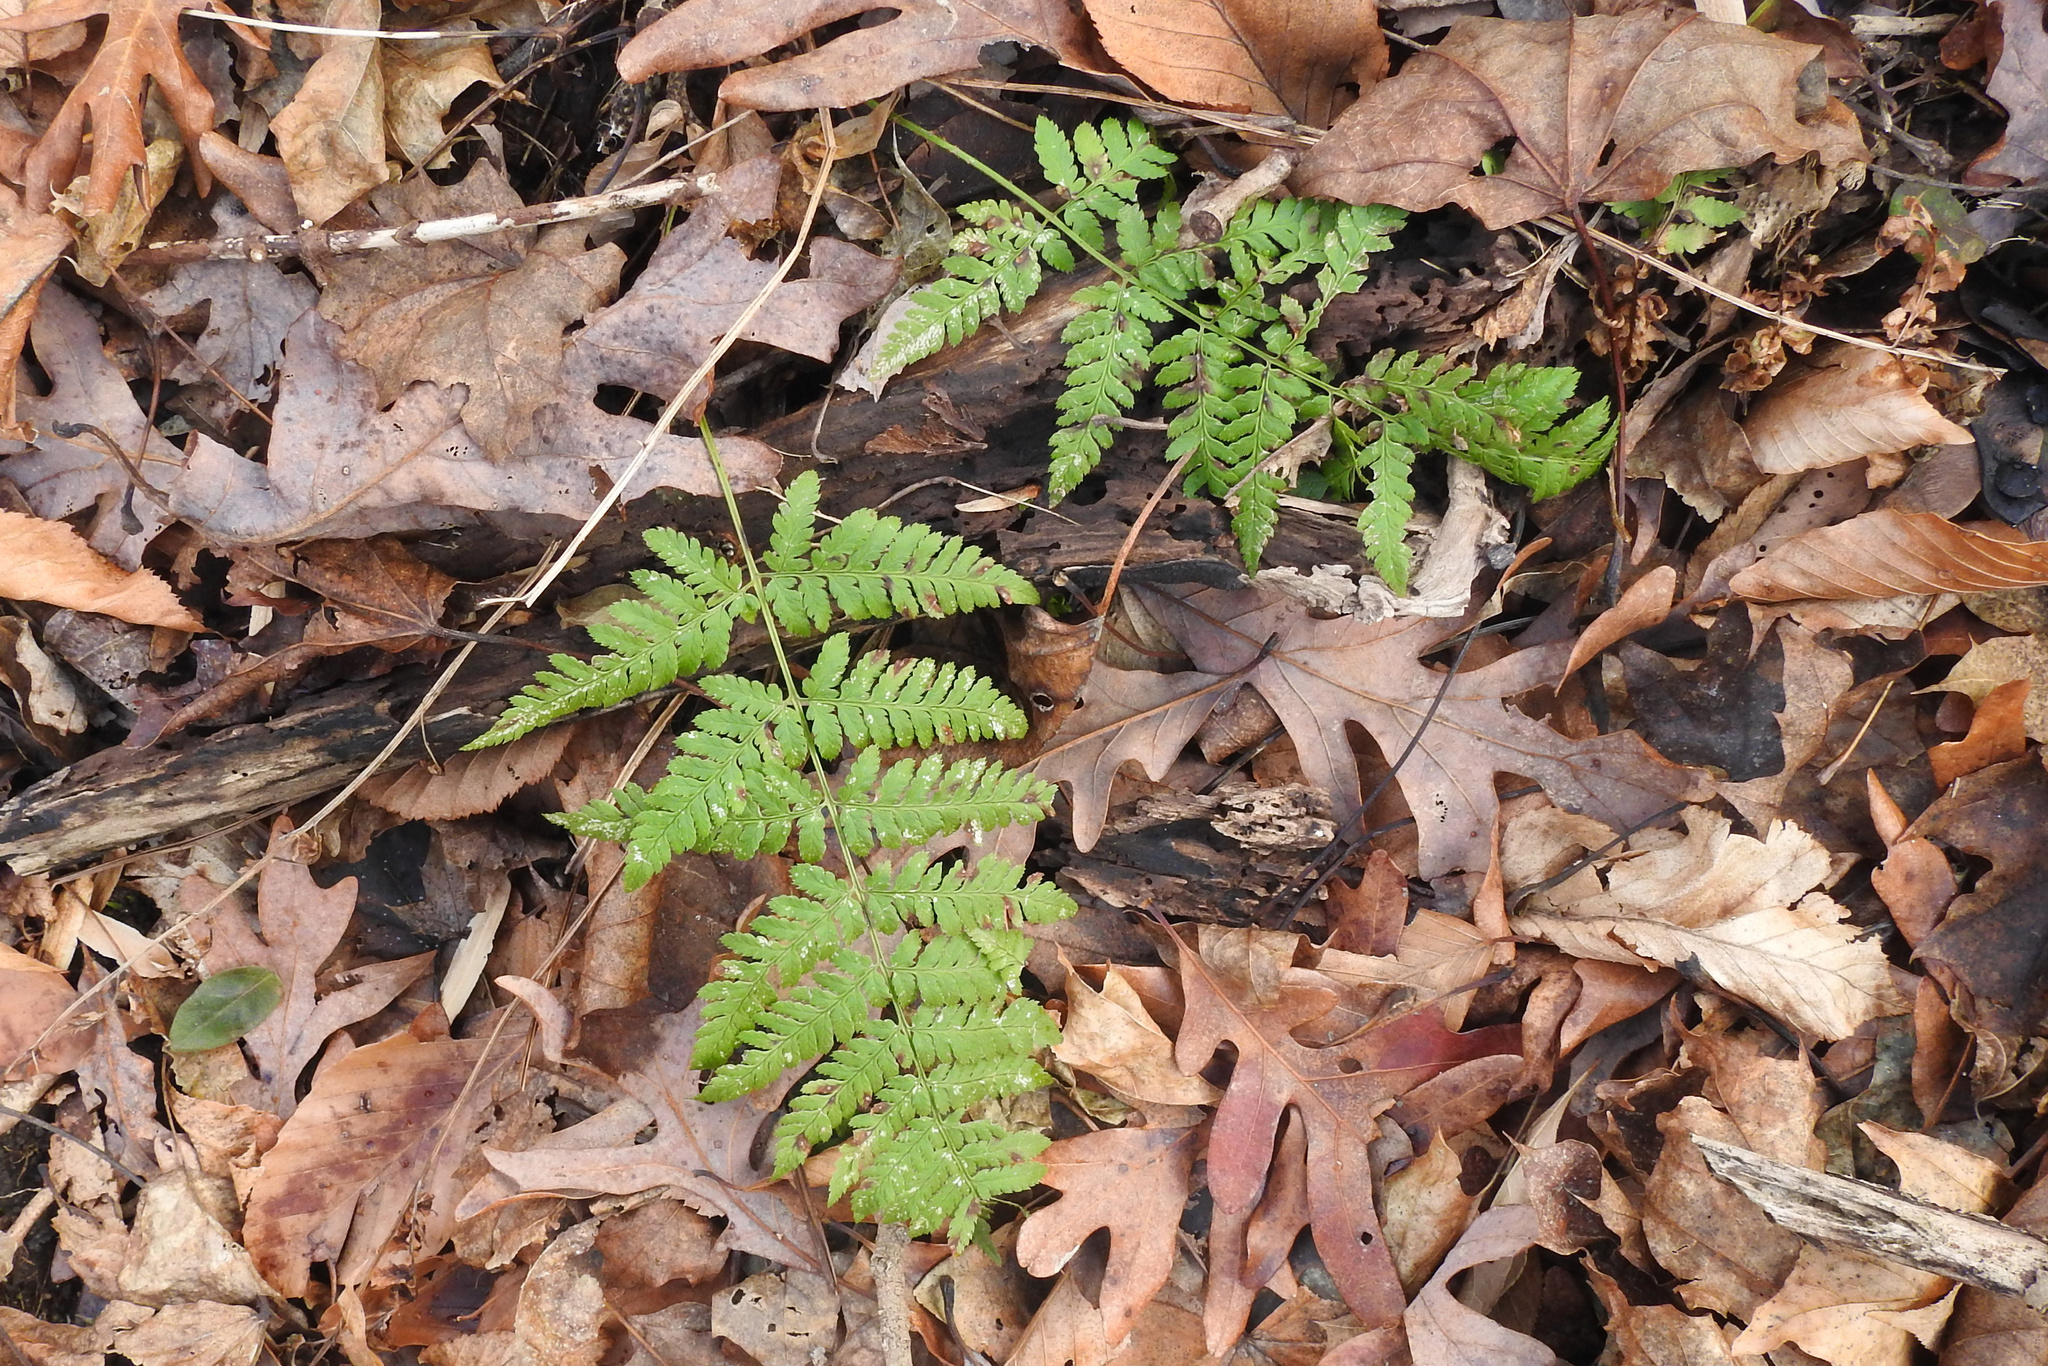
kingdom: Plantae
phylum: Tracheophyta
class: Polypodiopsida
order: Polypodiales
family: Dryopteridaceae
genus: Dryopteris
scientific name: Dryopteris carthusiana
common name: Narrow buckler-fern
